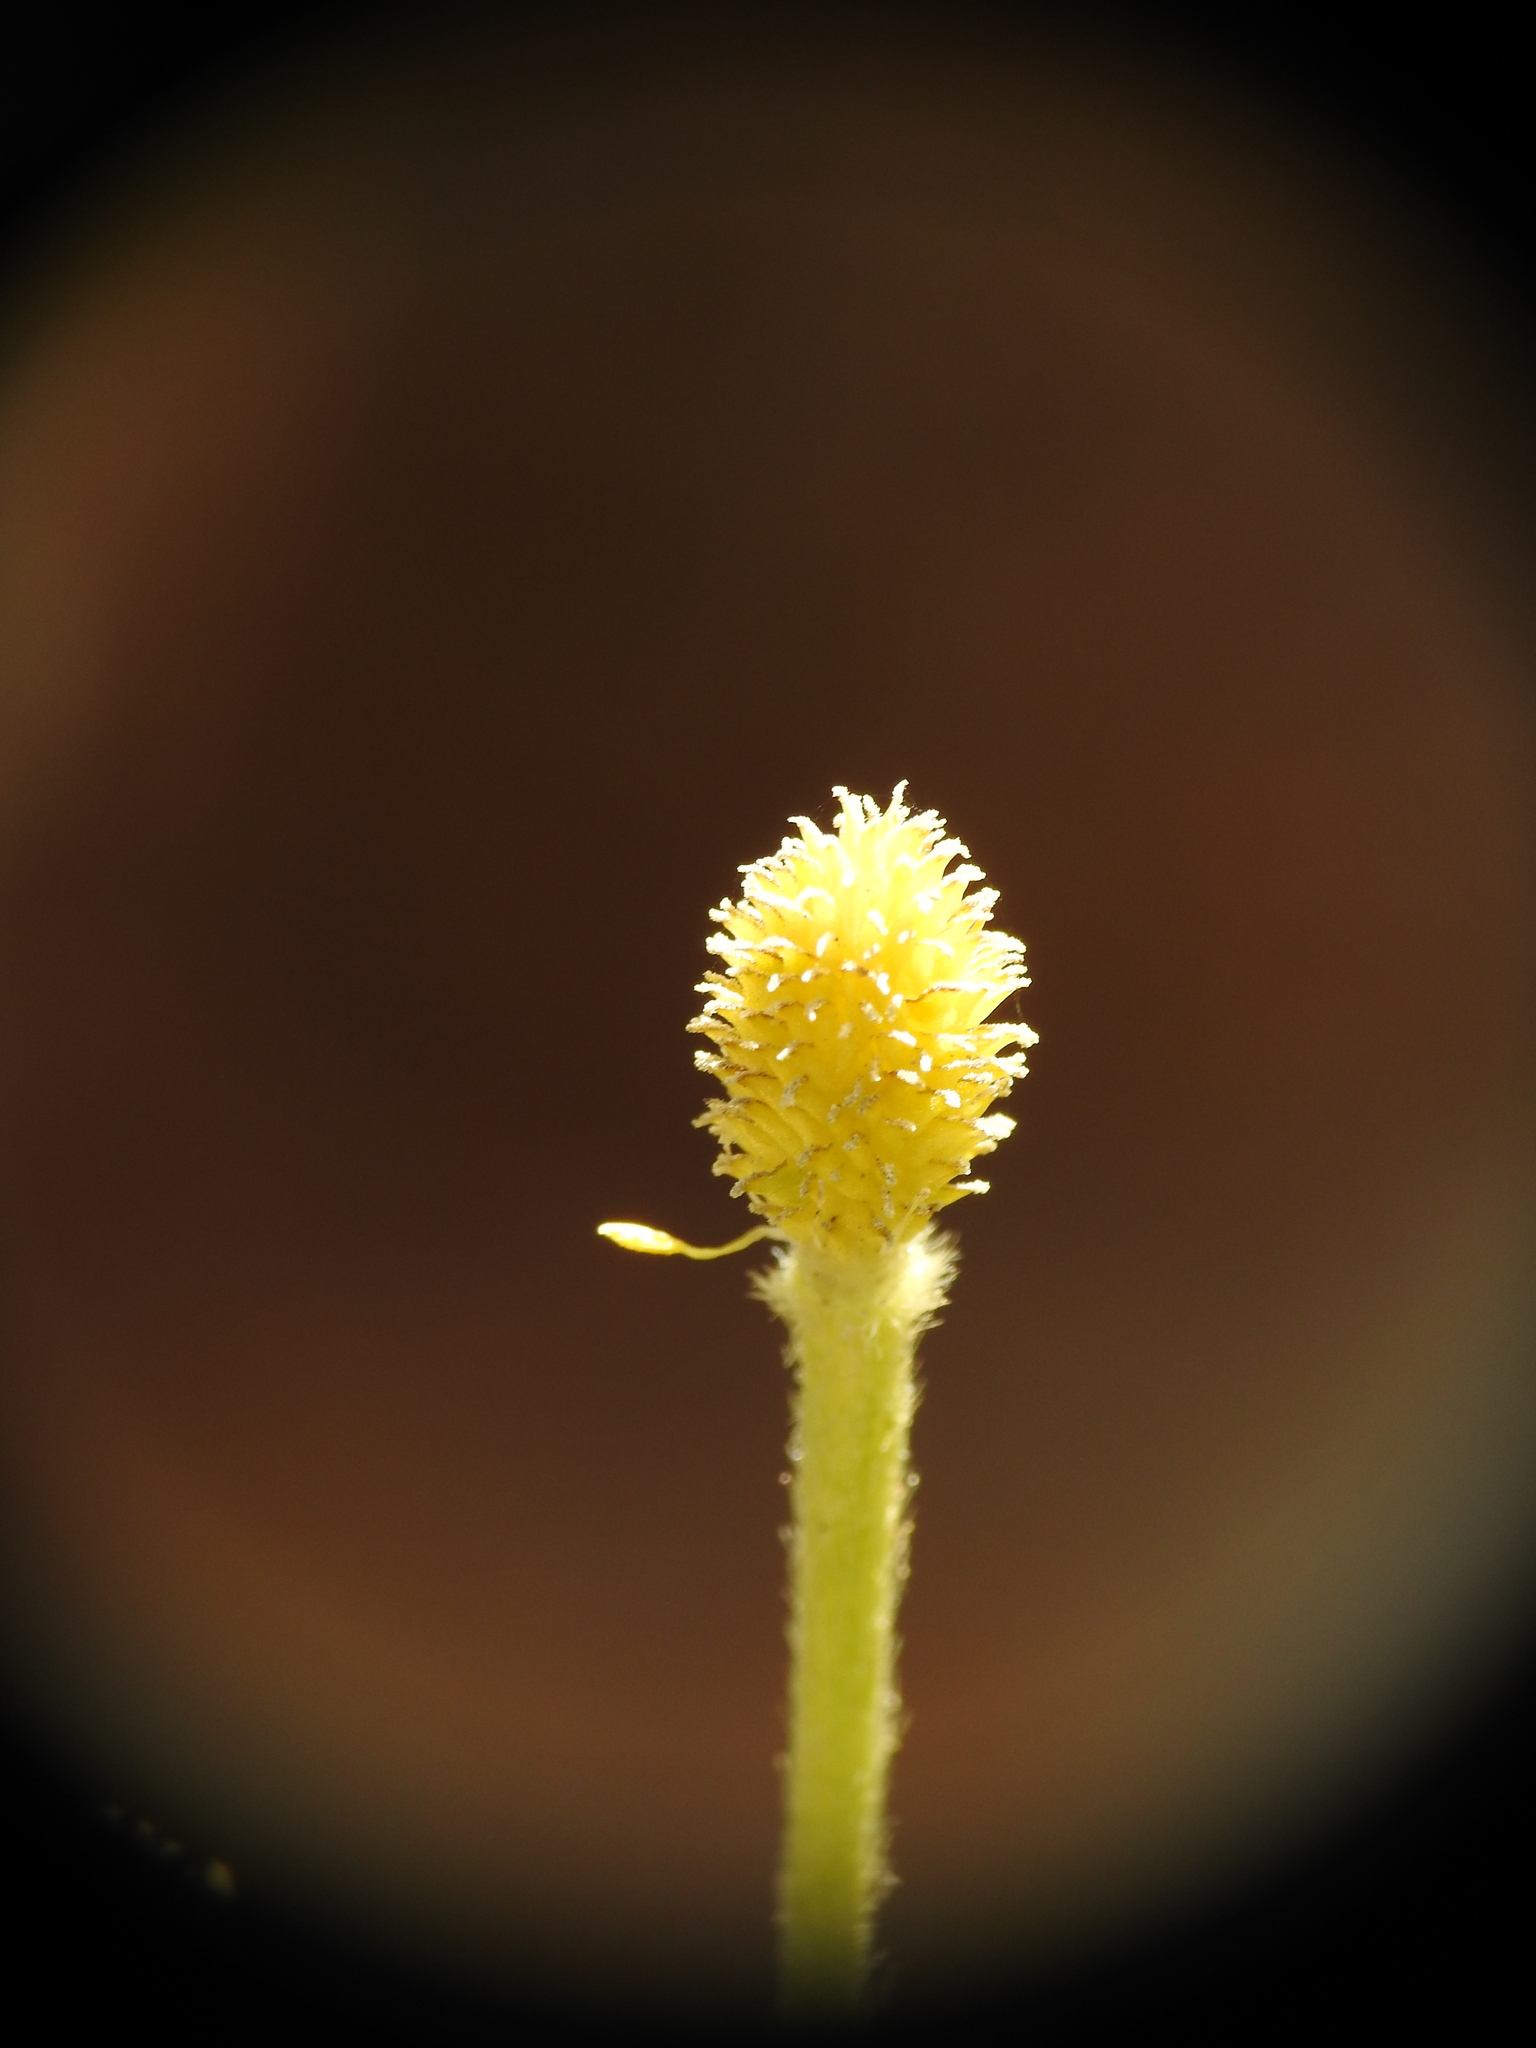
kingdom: Plantae
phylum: Tracheophyta
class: Magnoliopsida
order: Ranunculales
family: Ranunculaceae
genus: Ranunculus
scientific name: Ranunculus asiaticus
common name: Persian buttercup
